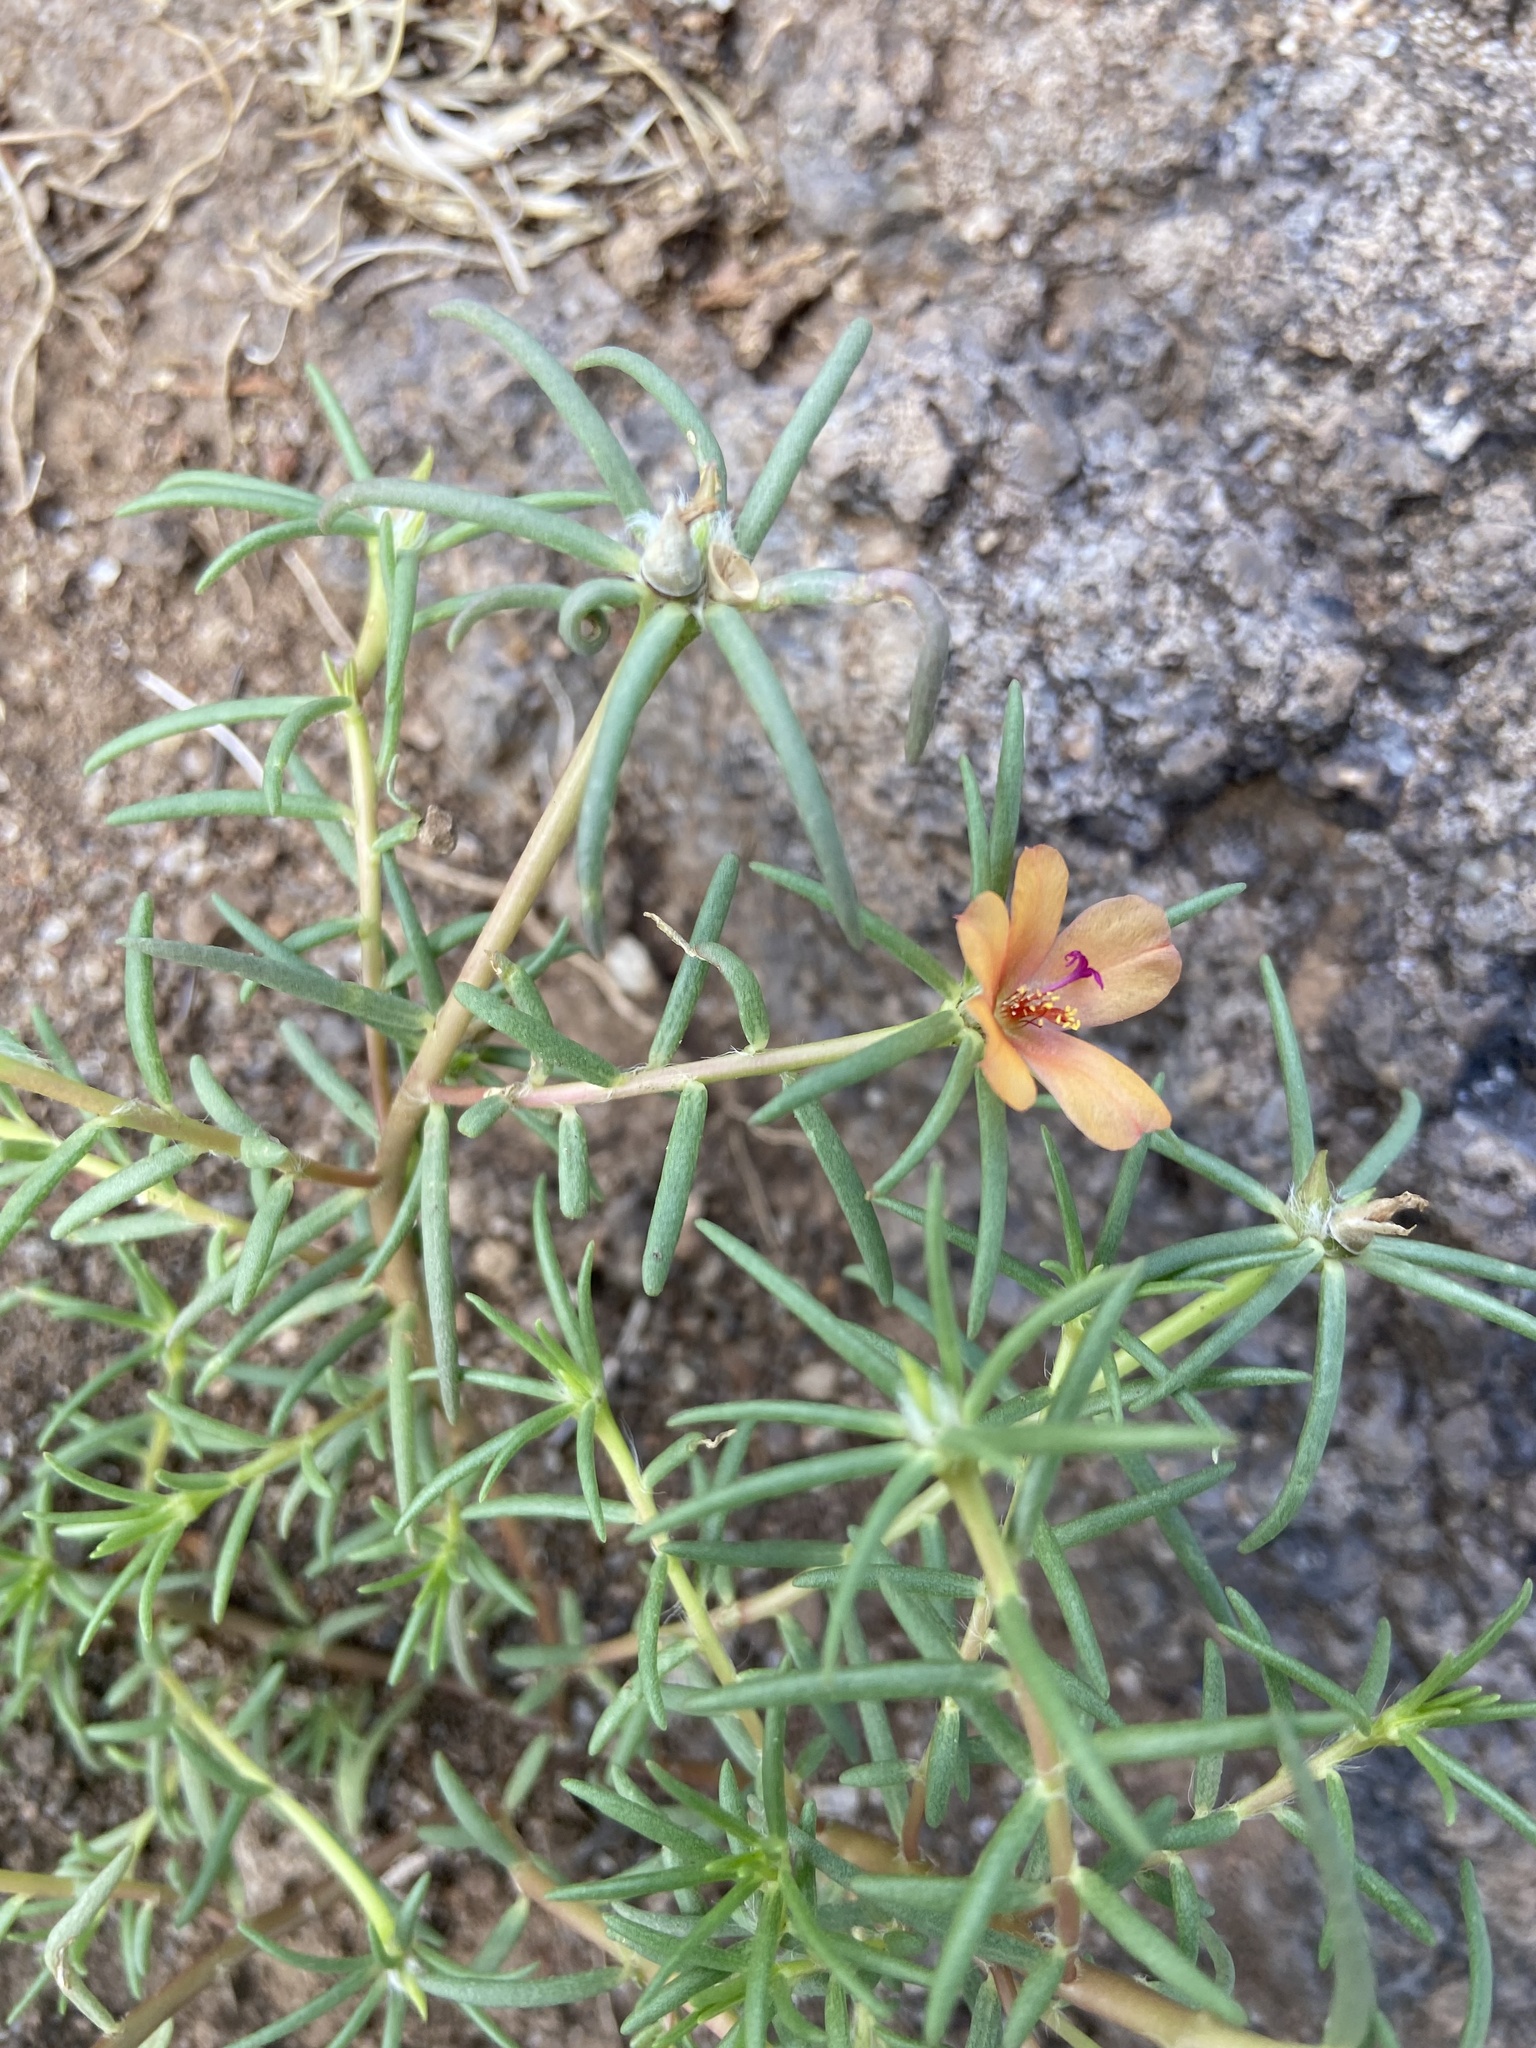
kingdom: Plantae
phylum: Tracheophyta
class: Magnoliopsida
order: Caryophyllales
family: Montiaceae
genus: Phemeranthus
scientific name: Phemeranthus aurantiacus
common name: Orange fameflower
